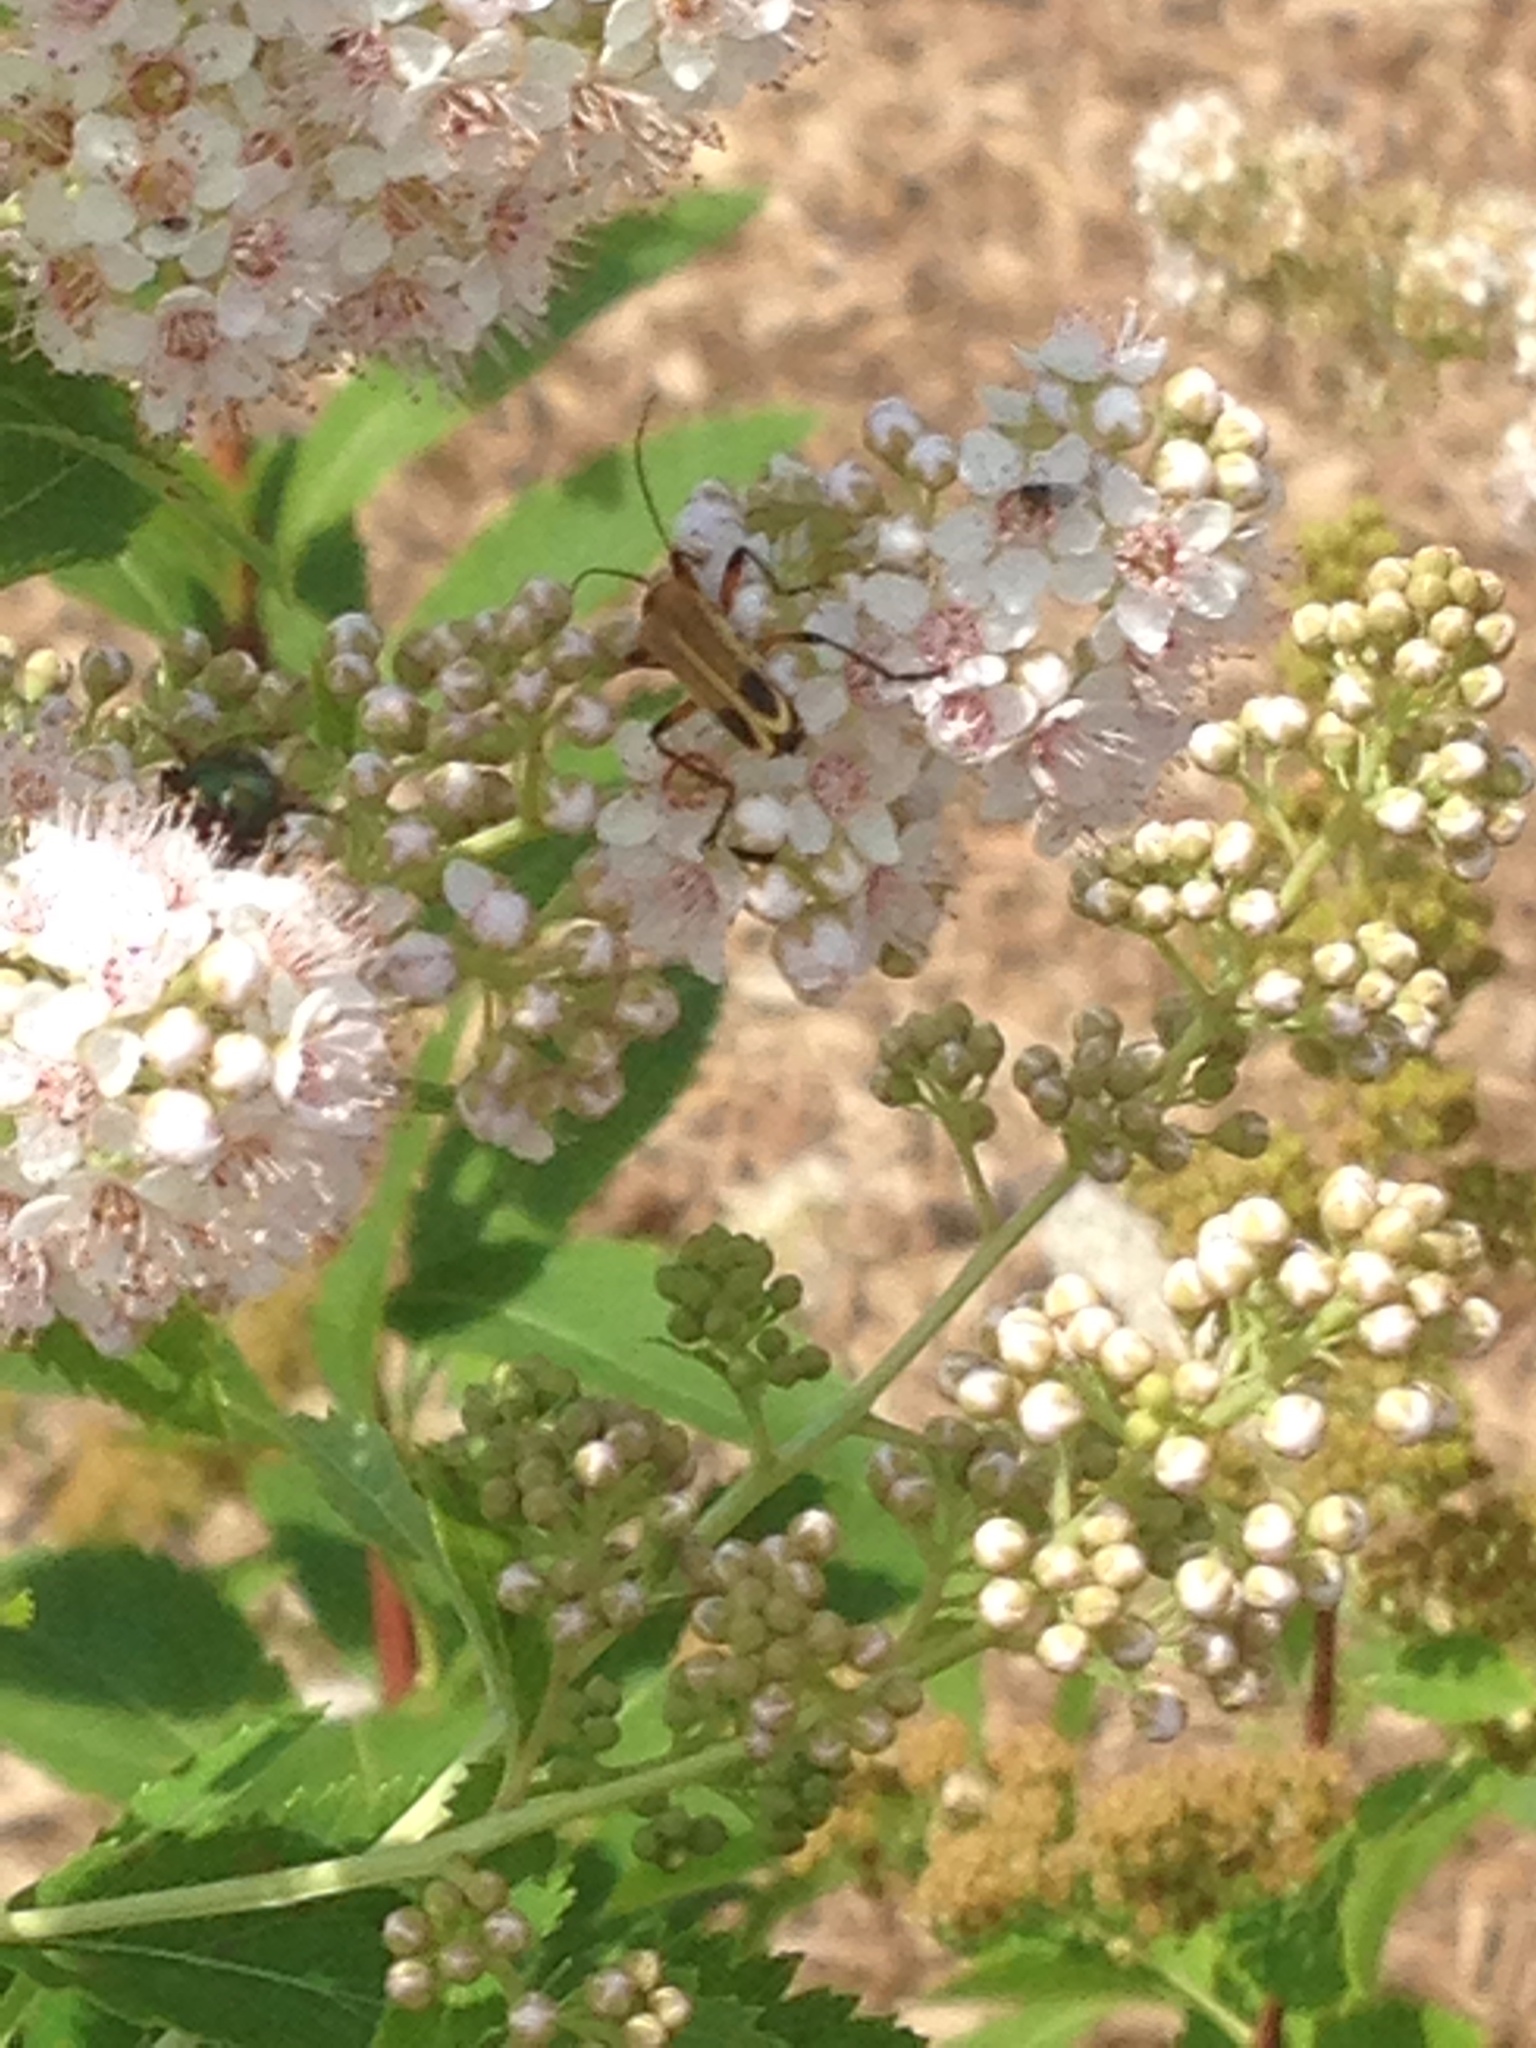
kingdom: Animalia
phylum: Arthropoda
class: Insecta
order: Coleoptera
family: Cantharidae
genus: Chauliognathus
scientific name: Chauliognathus marginatus
